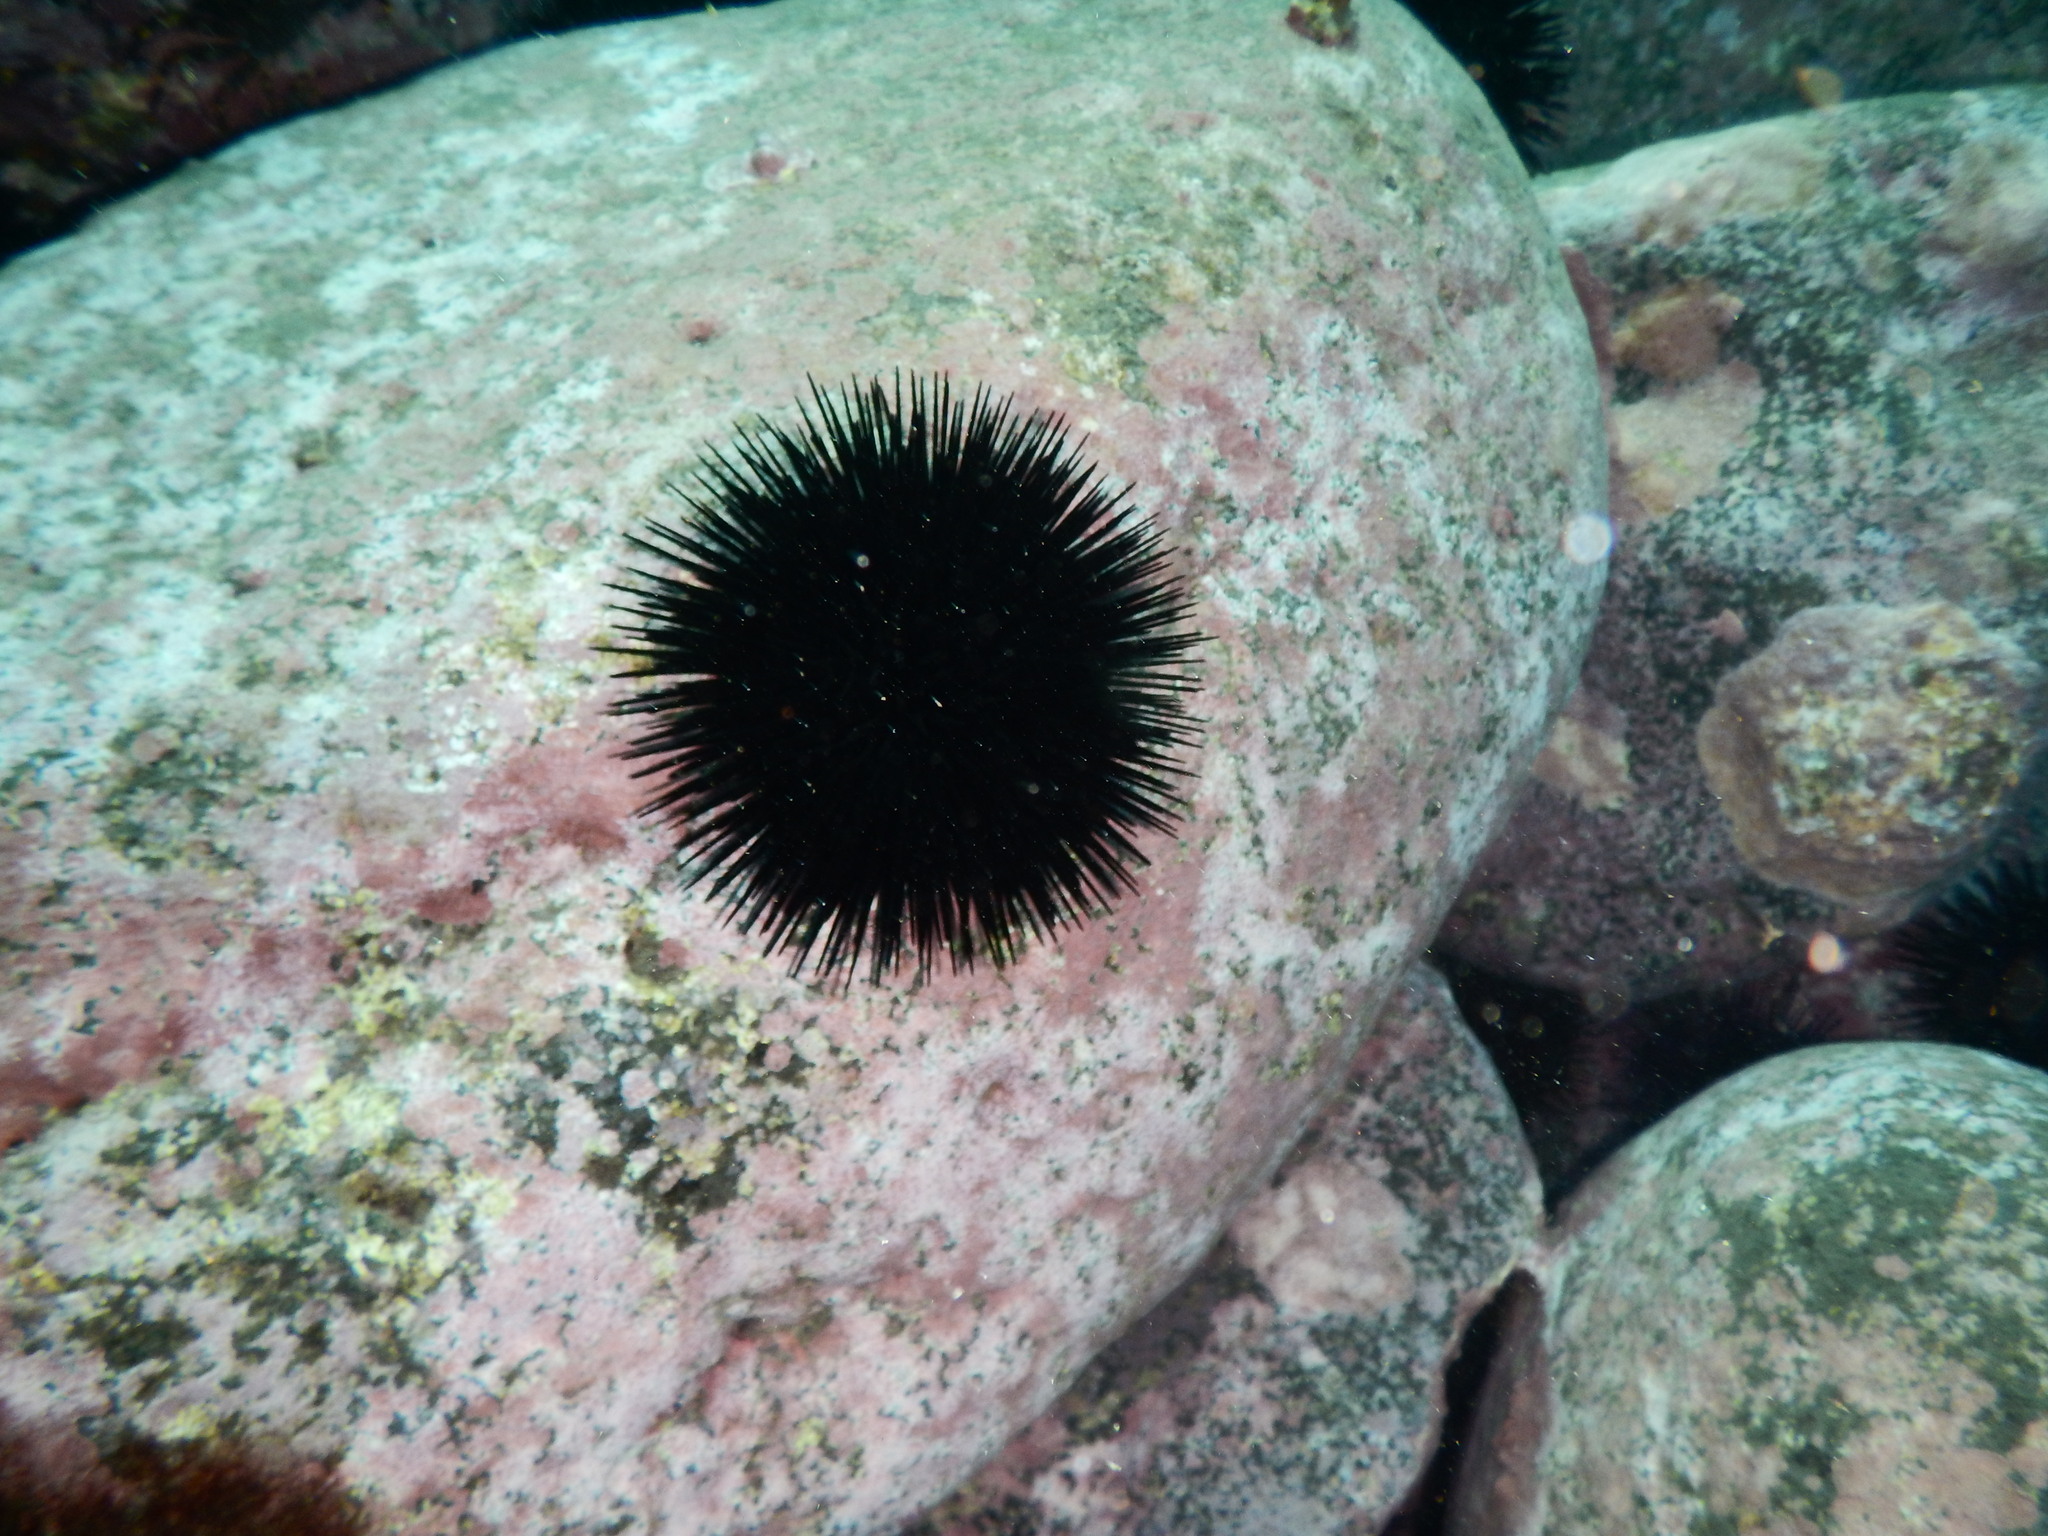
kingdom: Animalia
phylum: Echinodermata
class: Echinoidea
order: Arbacioida
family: Arbaciidae
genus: Arbacia
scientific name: Arbacia lixula
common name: Black sea urchin
